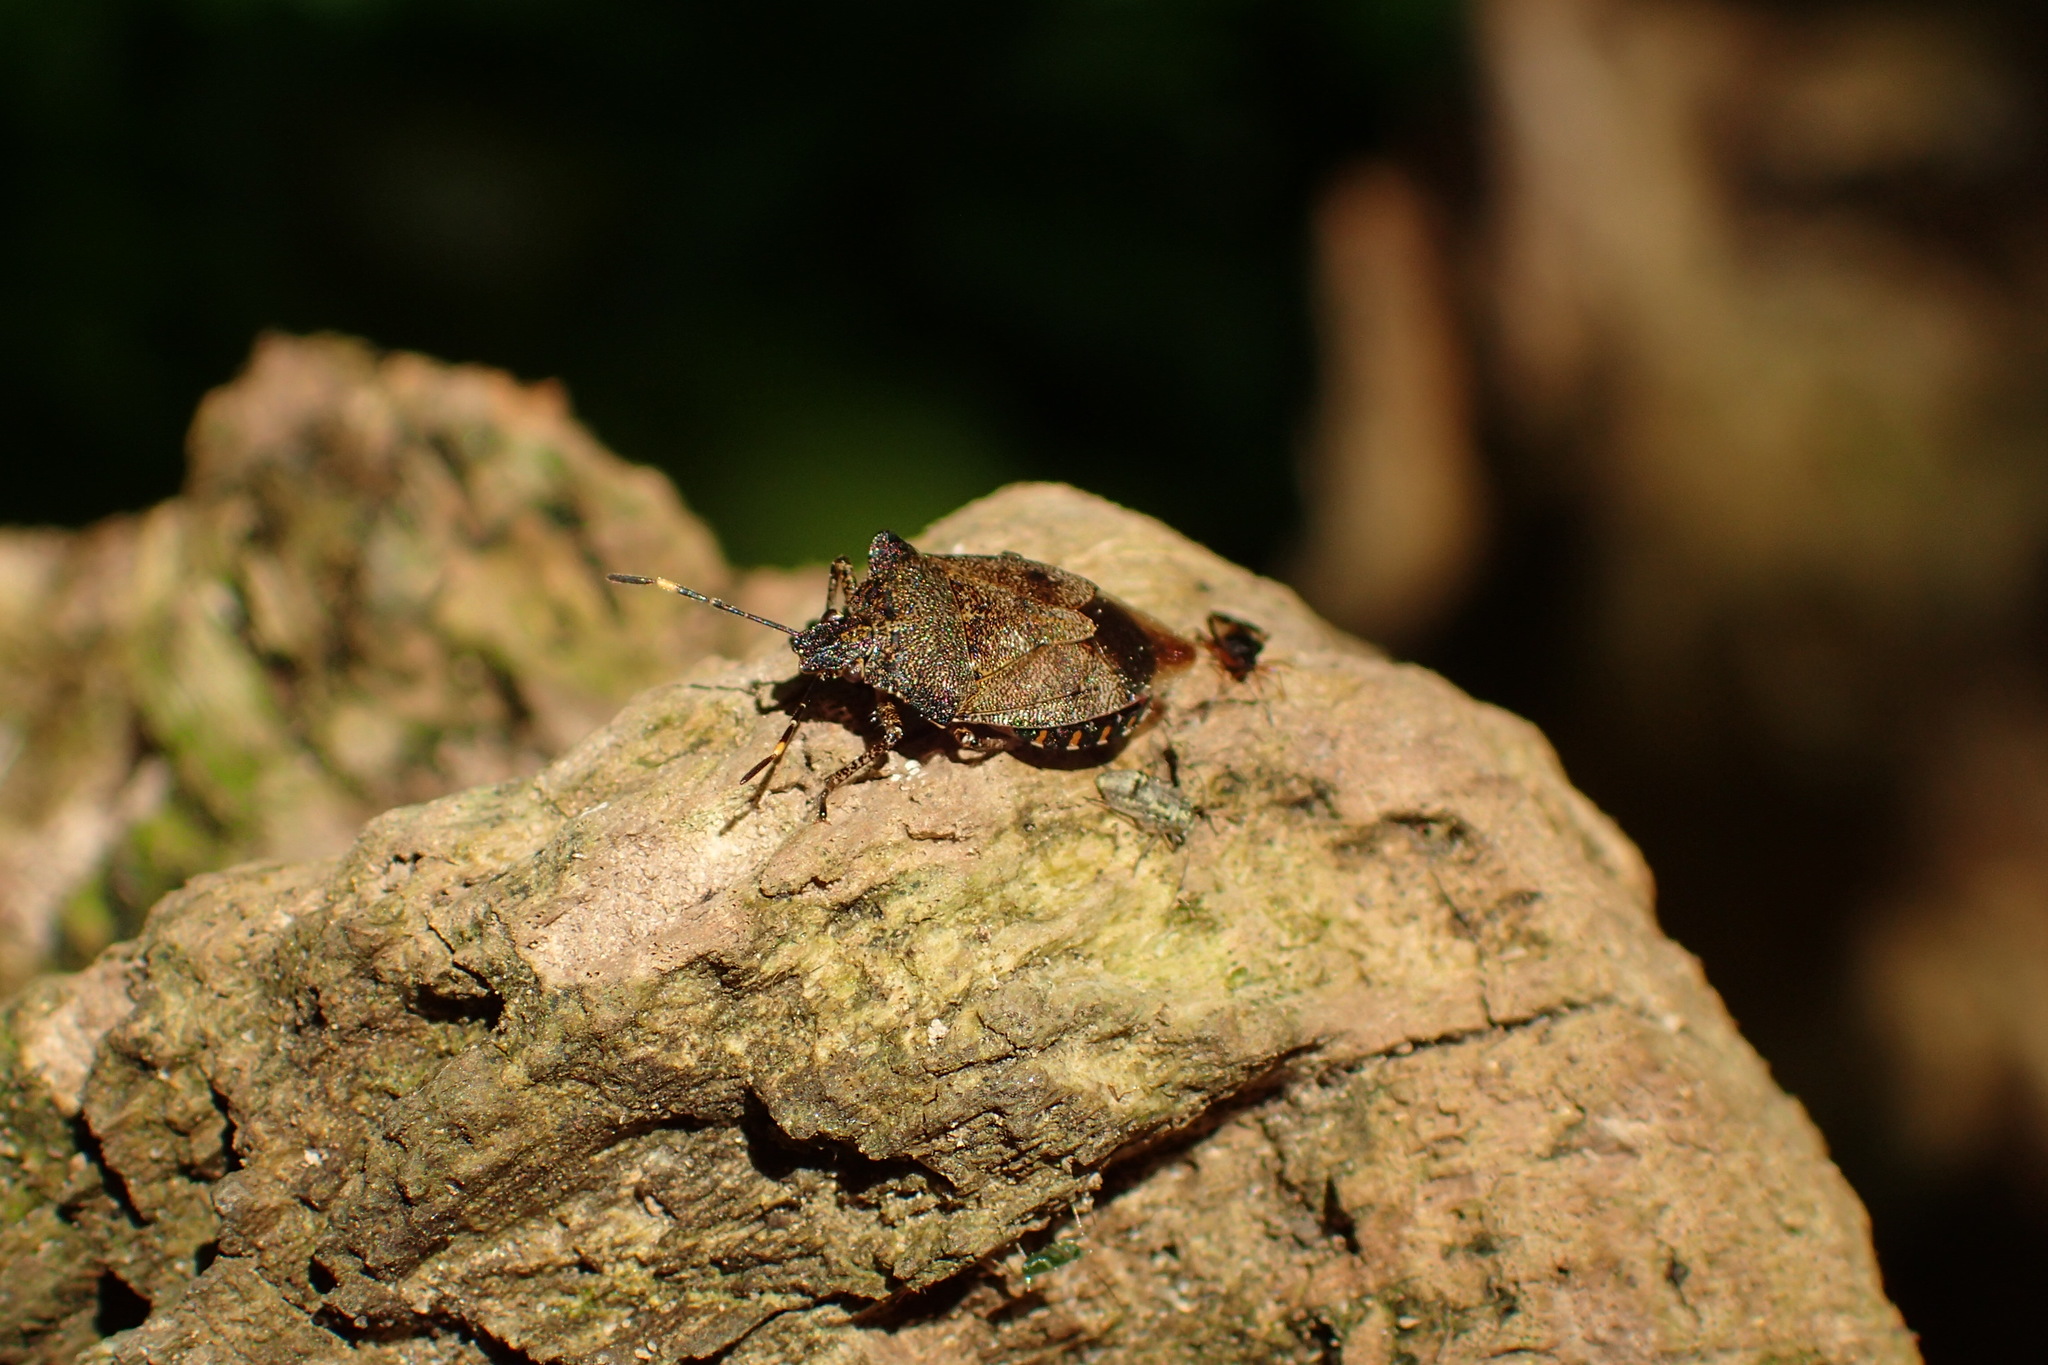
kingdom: Animalia
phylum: Arthropoda
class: Insecta
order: Hemiptera
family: Pentatomidae
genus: Troilus
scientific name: Troilus luridus
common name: Bronze shieldbug
